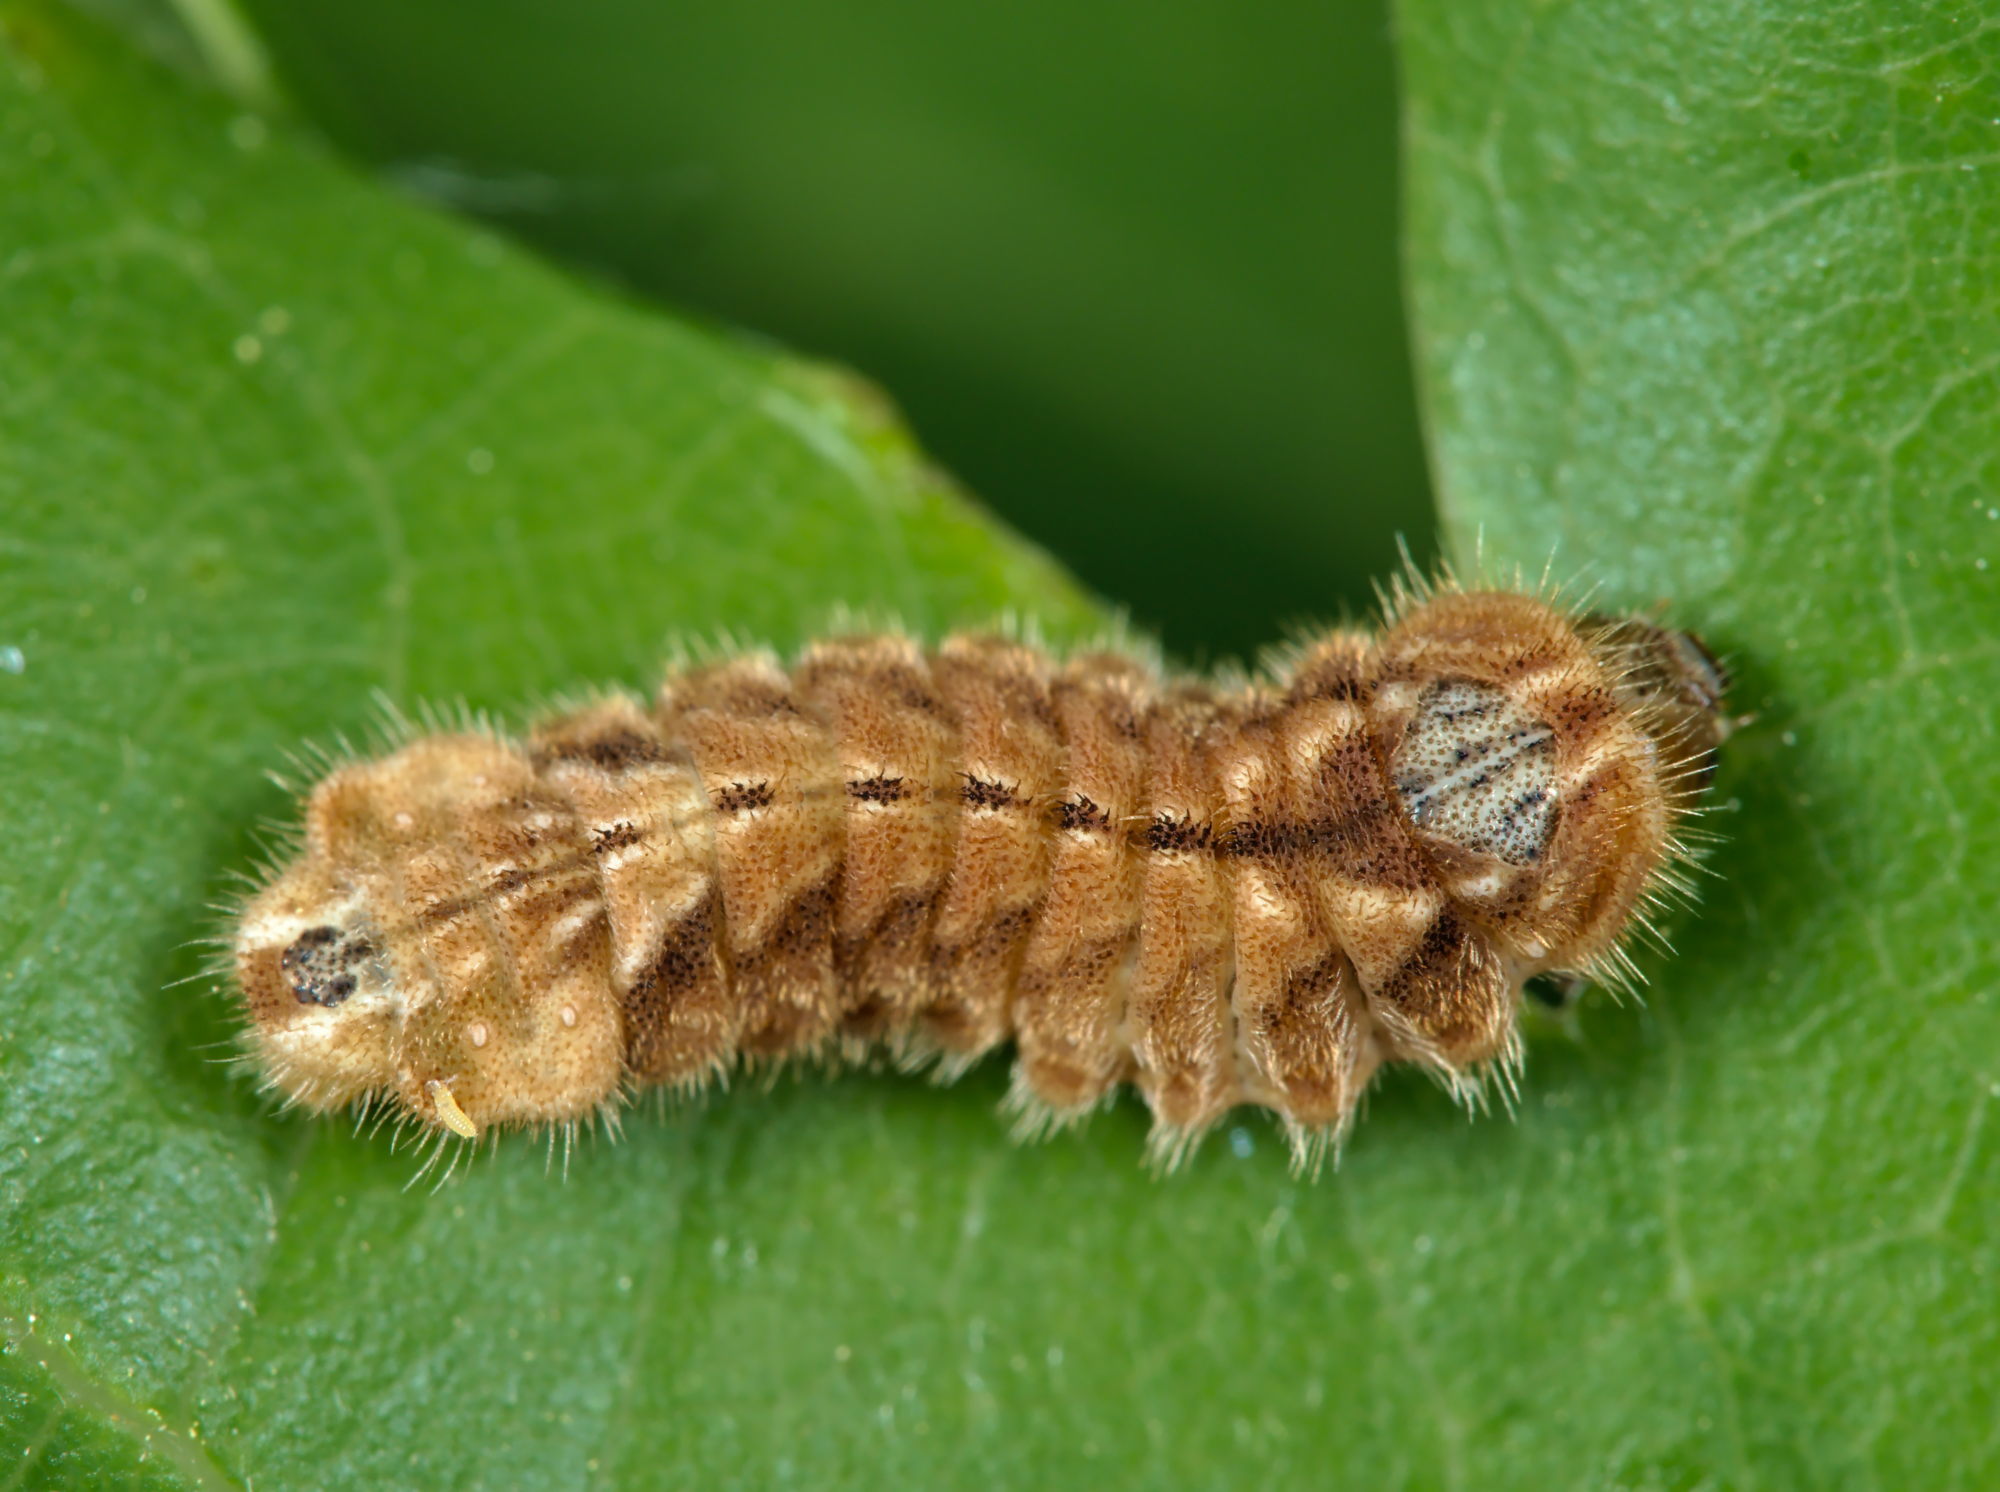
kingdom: Animalia
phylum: Arthropoda
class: Insecta
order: Lepidoptera
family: Lycaenidae
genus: Quercusia
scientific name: Quercusia quercus
